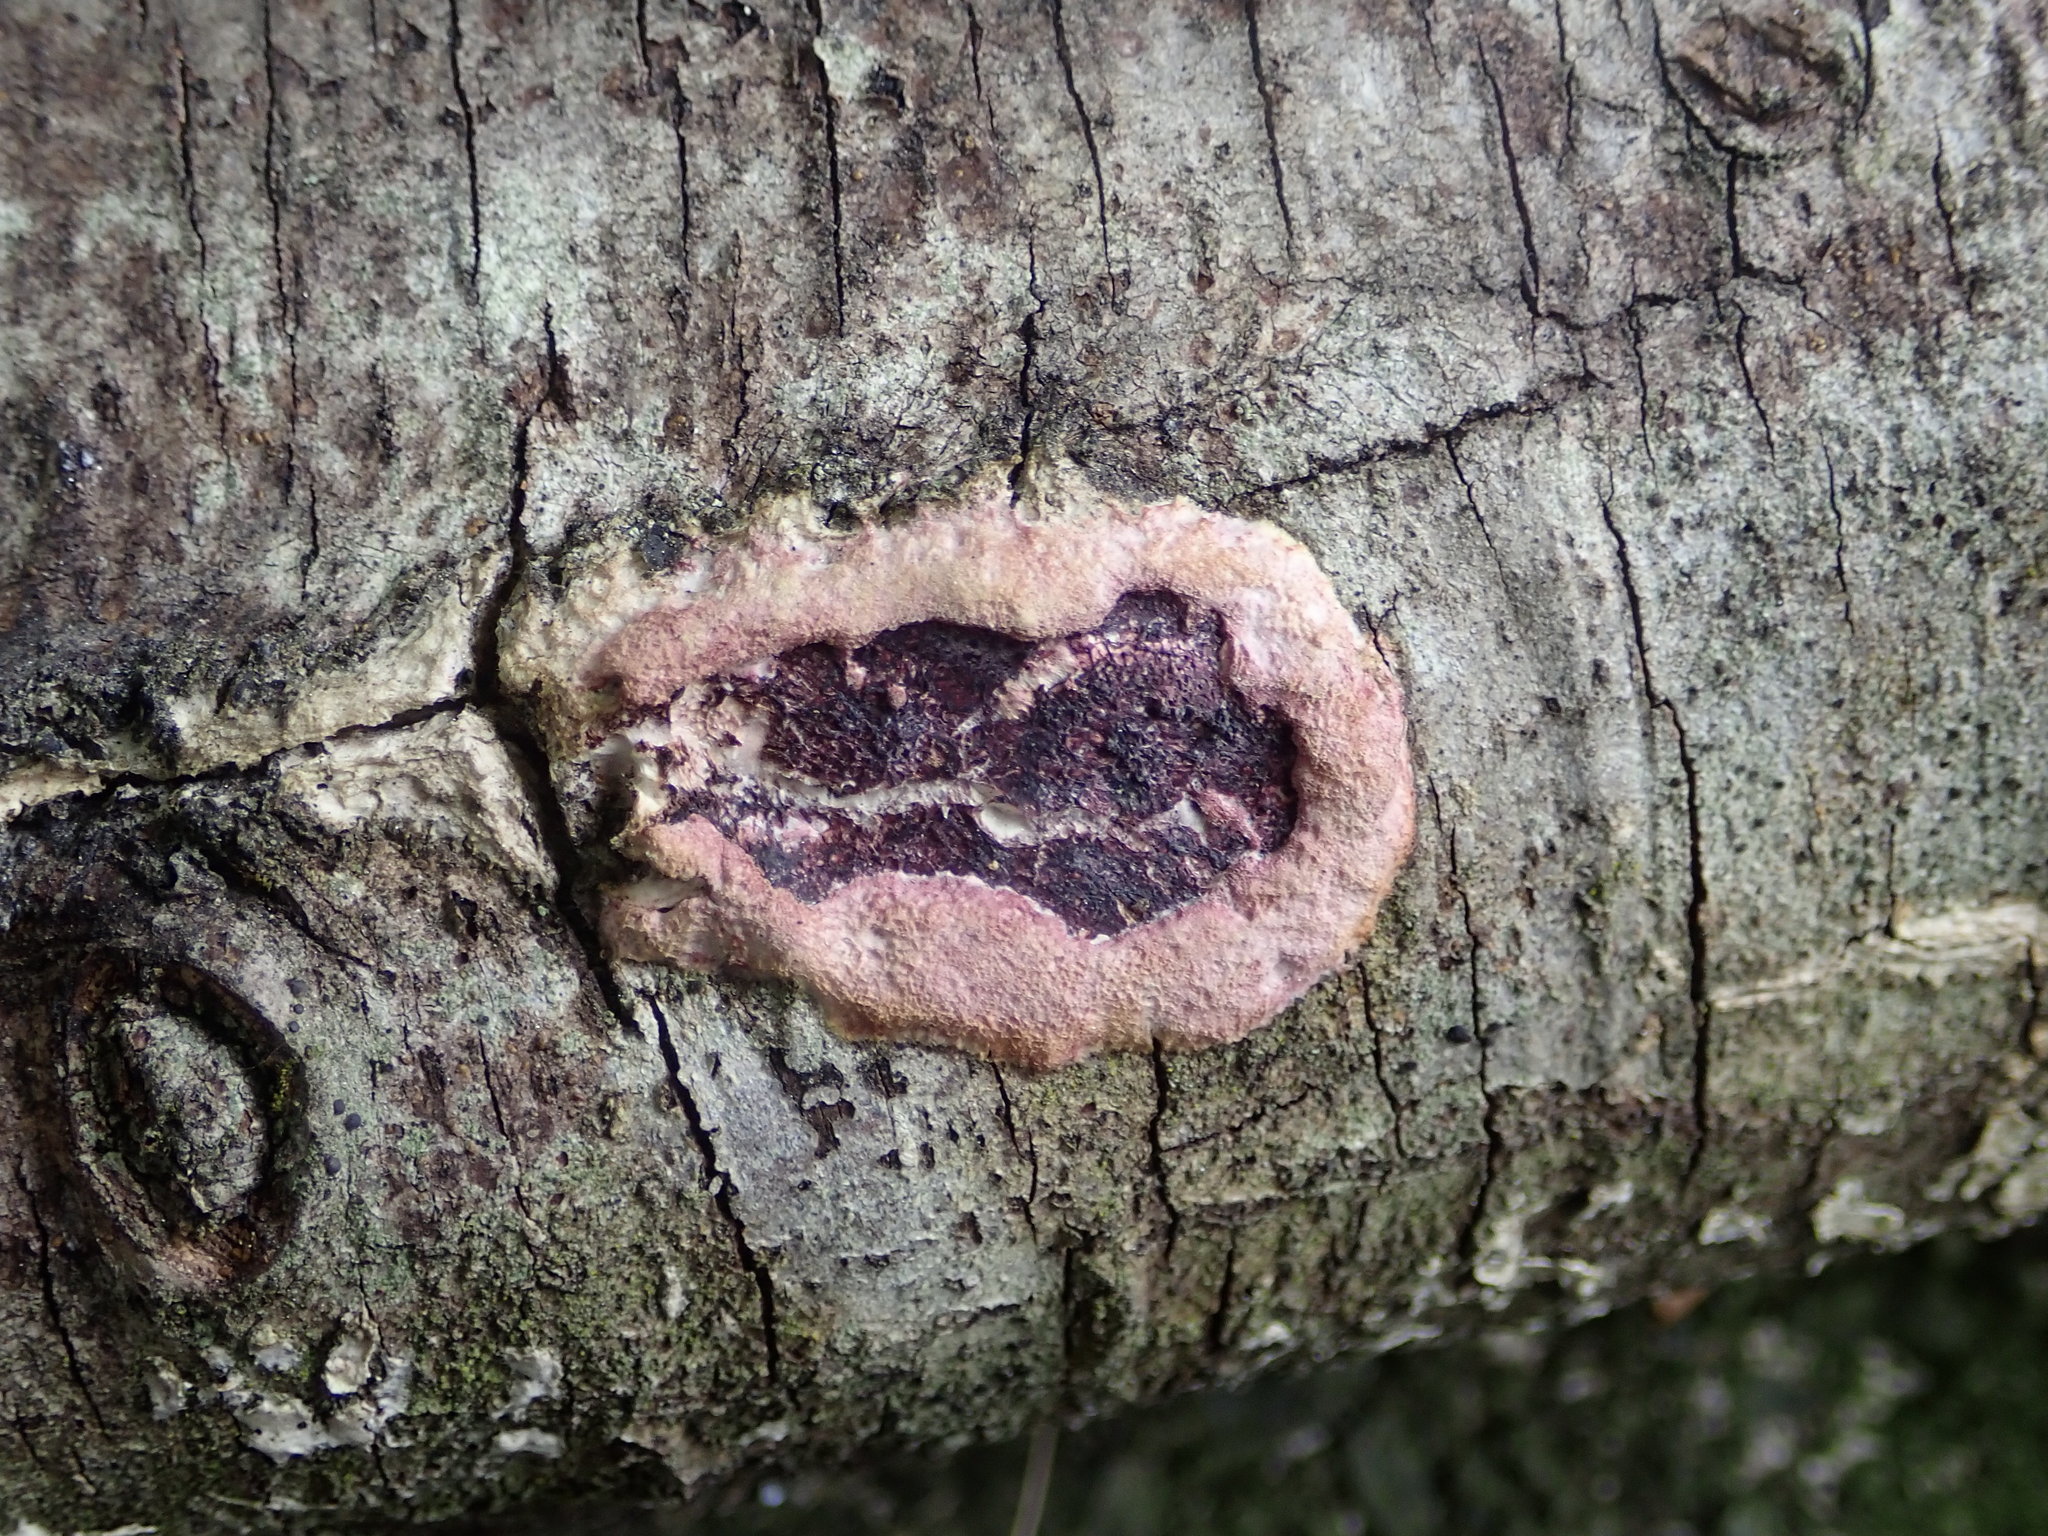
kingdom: Fungi
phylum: Basidiomycota
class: Agaricomycetes
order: Polyporales
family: Irpicaceae
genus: Byssomerulius
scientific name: Byssomerulius psittacinus
